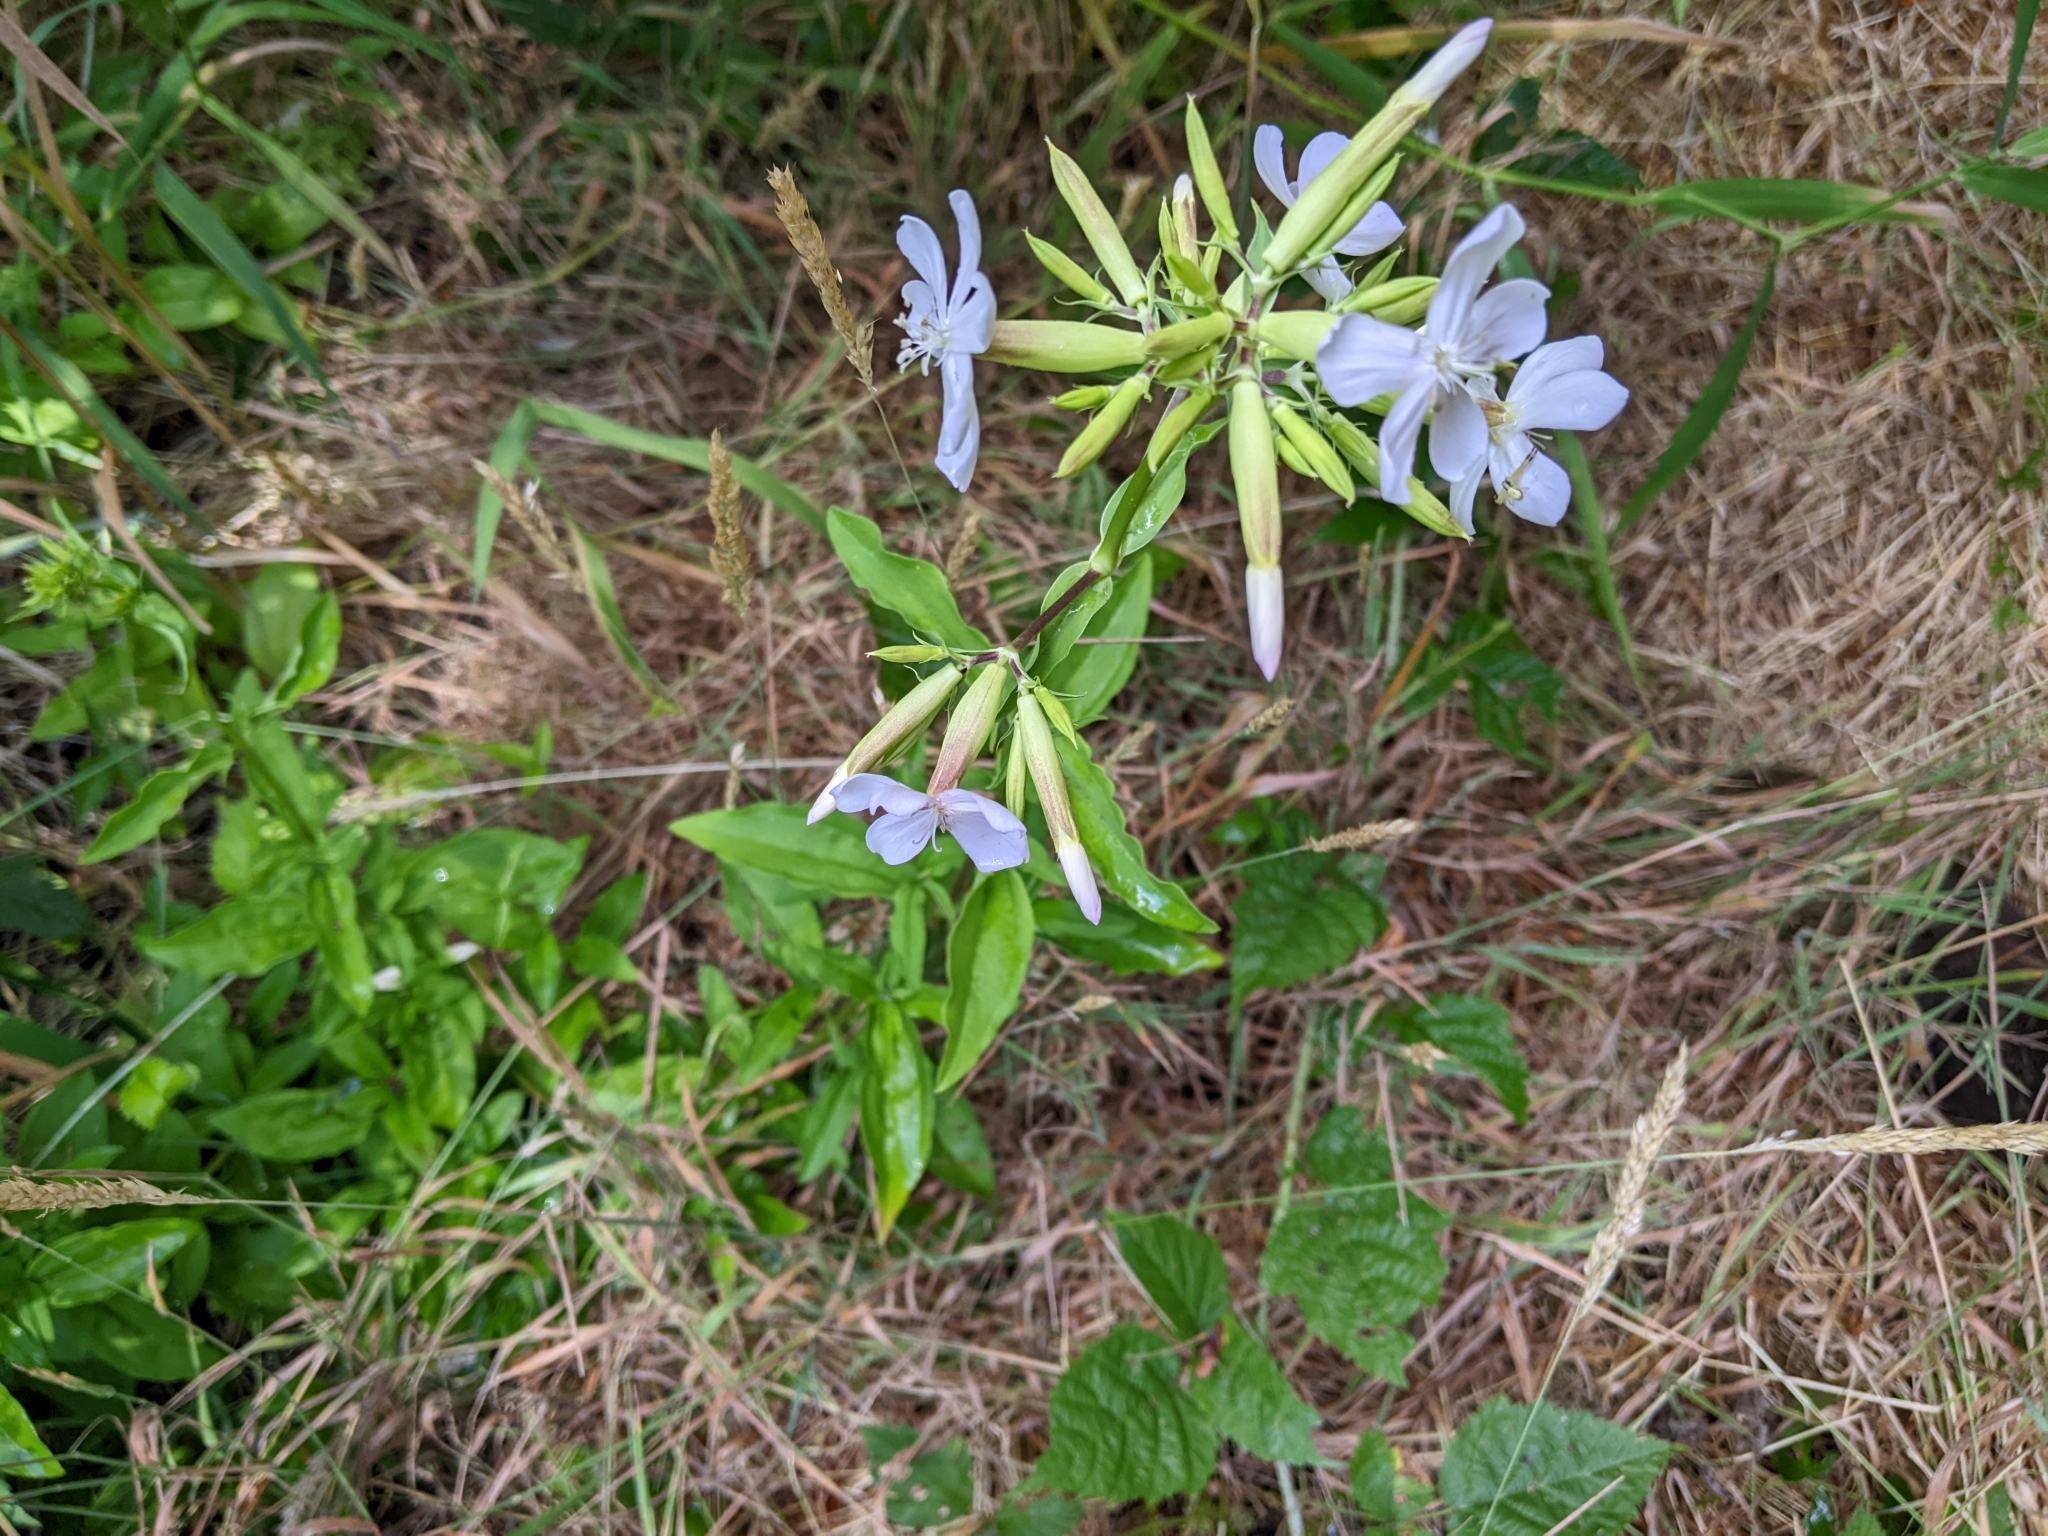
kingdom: Plantae
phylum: Tracheophyta
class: Magnoliopsida
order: Caryophyllales
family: Caryophyllaceae
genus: Saponaria
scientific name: Saponaria officinalis
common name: Soapwort
